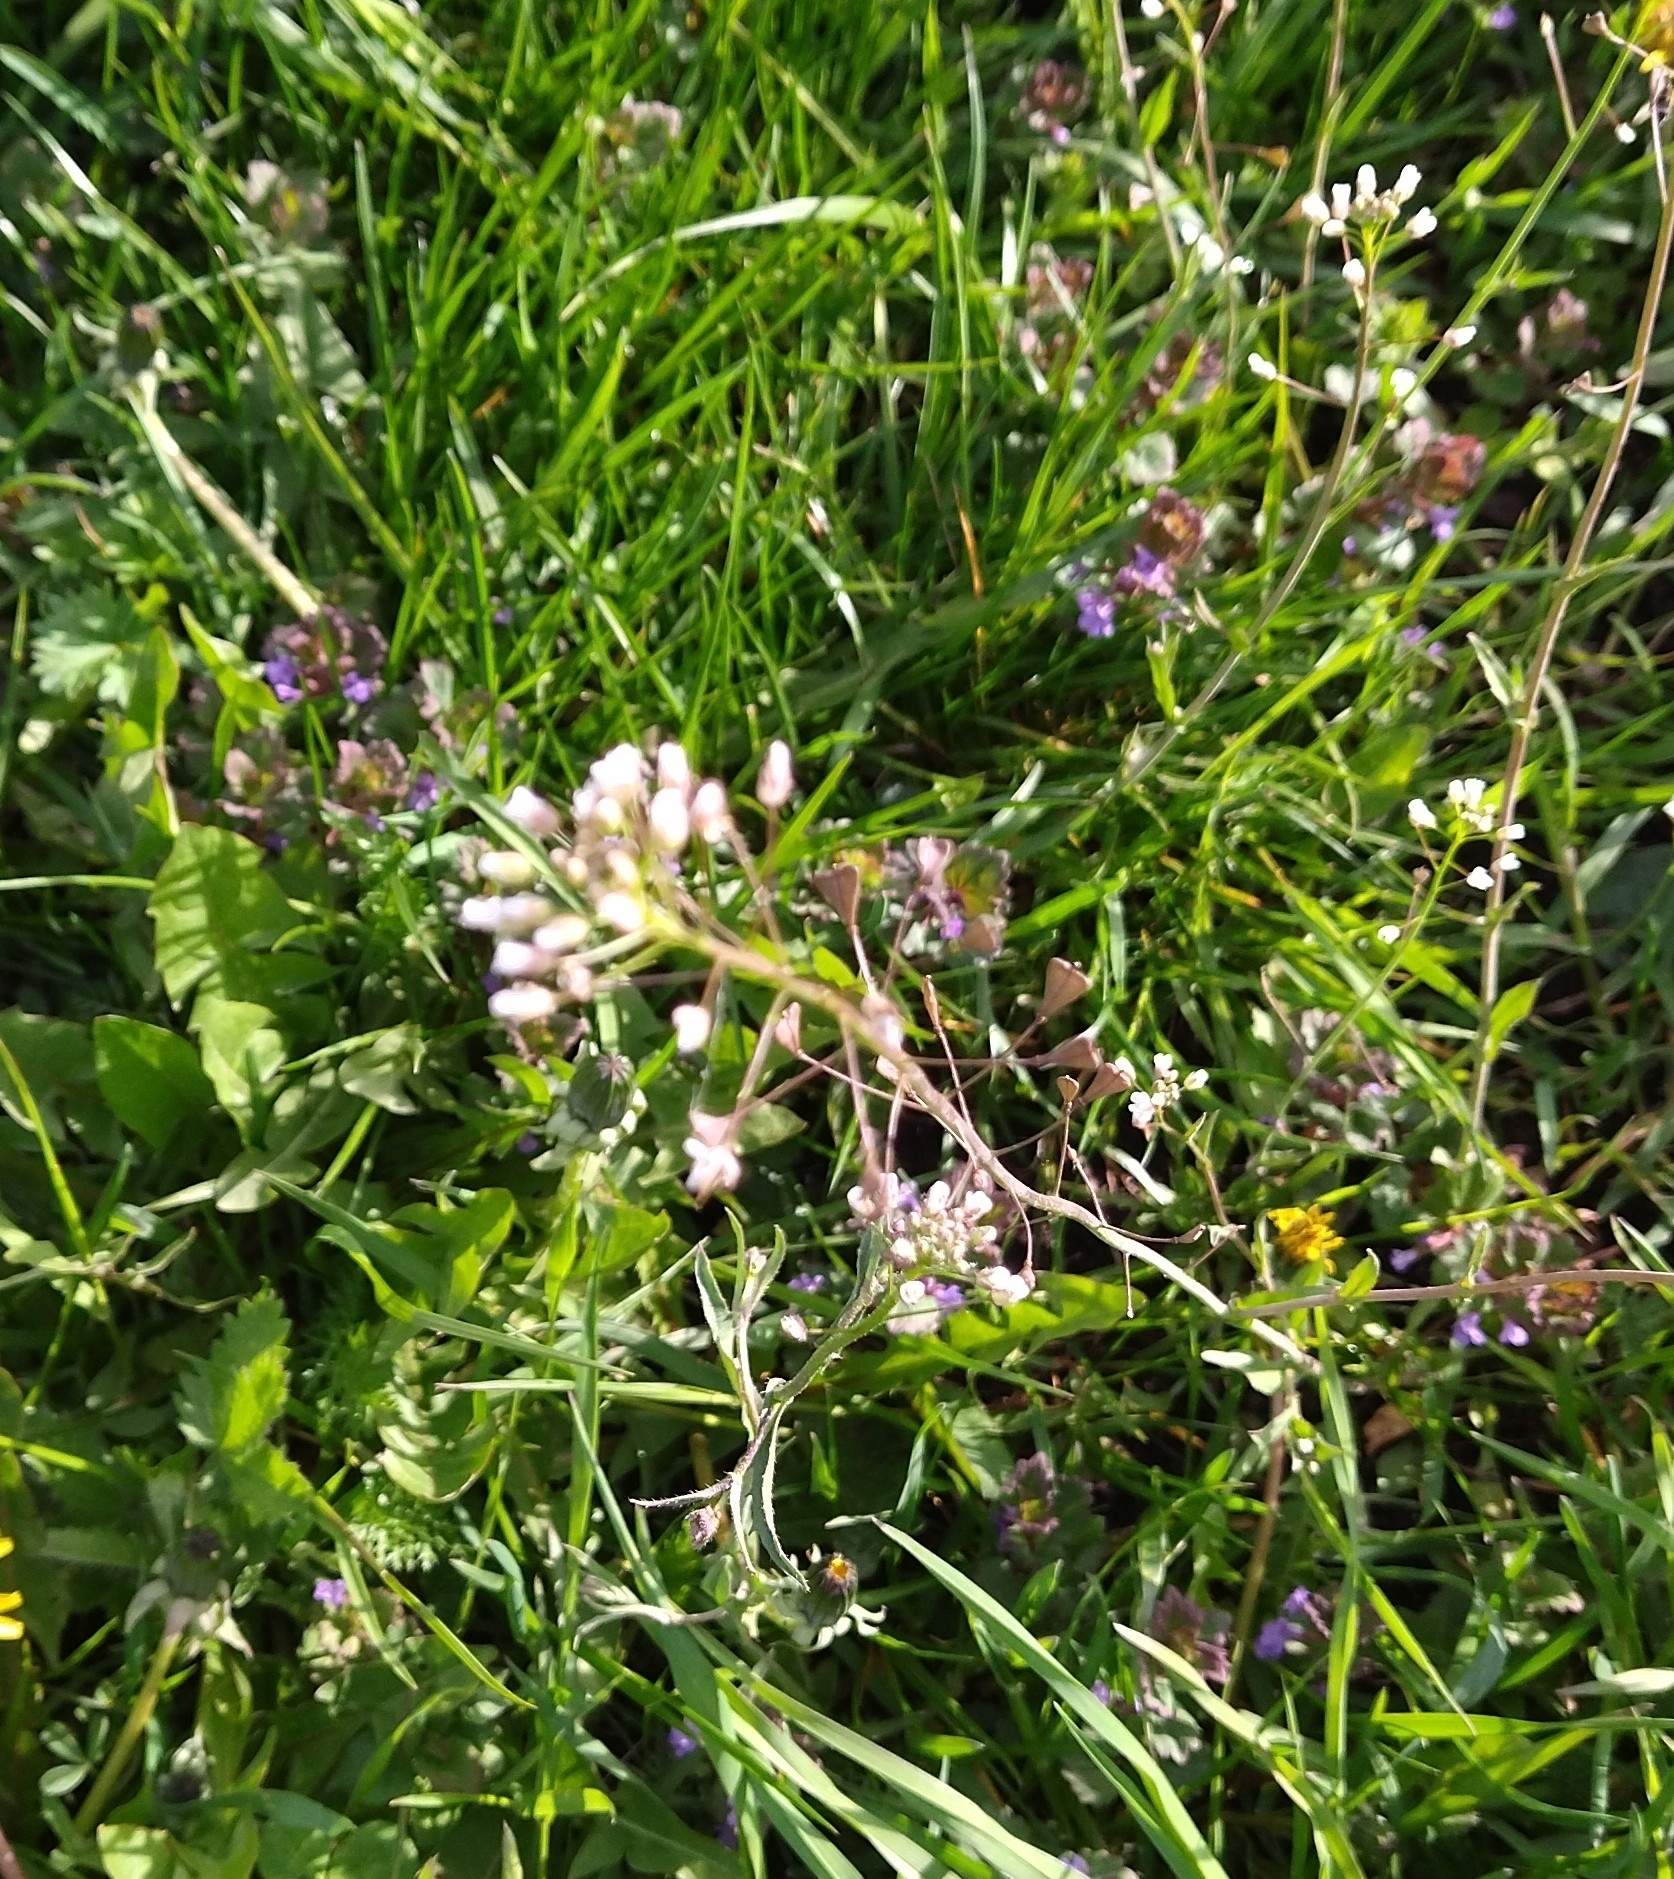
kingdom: Plantae
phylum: Tracheophyta
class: Magnoliopsida
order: Brassicales
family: Brassicaceae
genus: Capsella
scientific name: Capsella bursa-pastoris
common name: Shepherd's purse
